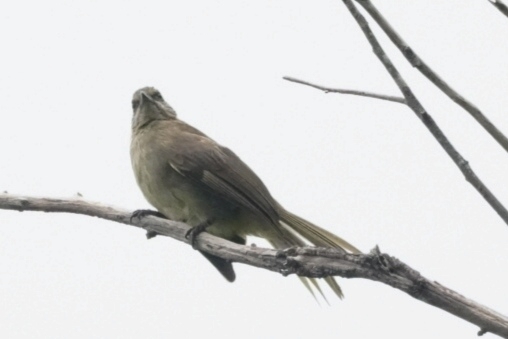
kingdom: Animalia
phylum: Chordata
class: Aves
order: Passeriformes
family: Pycnonotidae
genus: Pycnonotus
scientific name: Pycnonotus blanfordi
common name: Streak-eared bulbul
